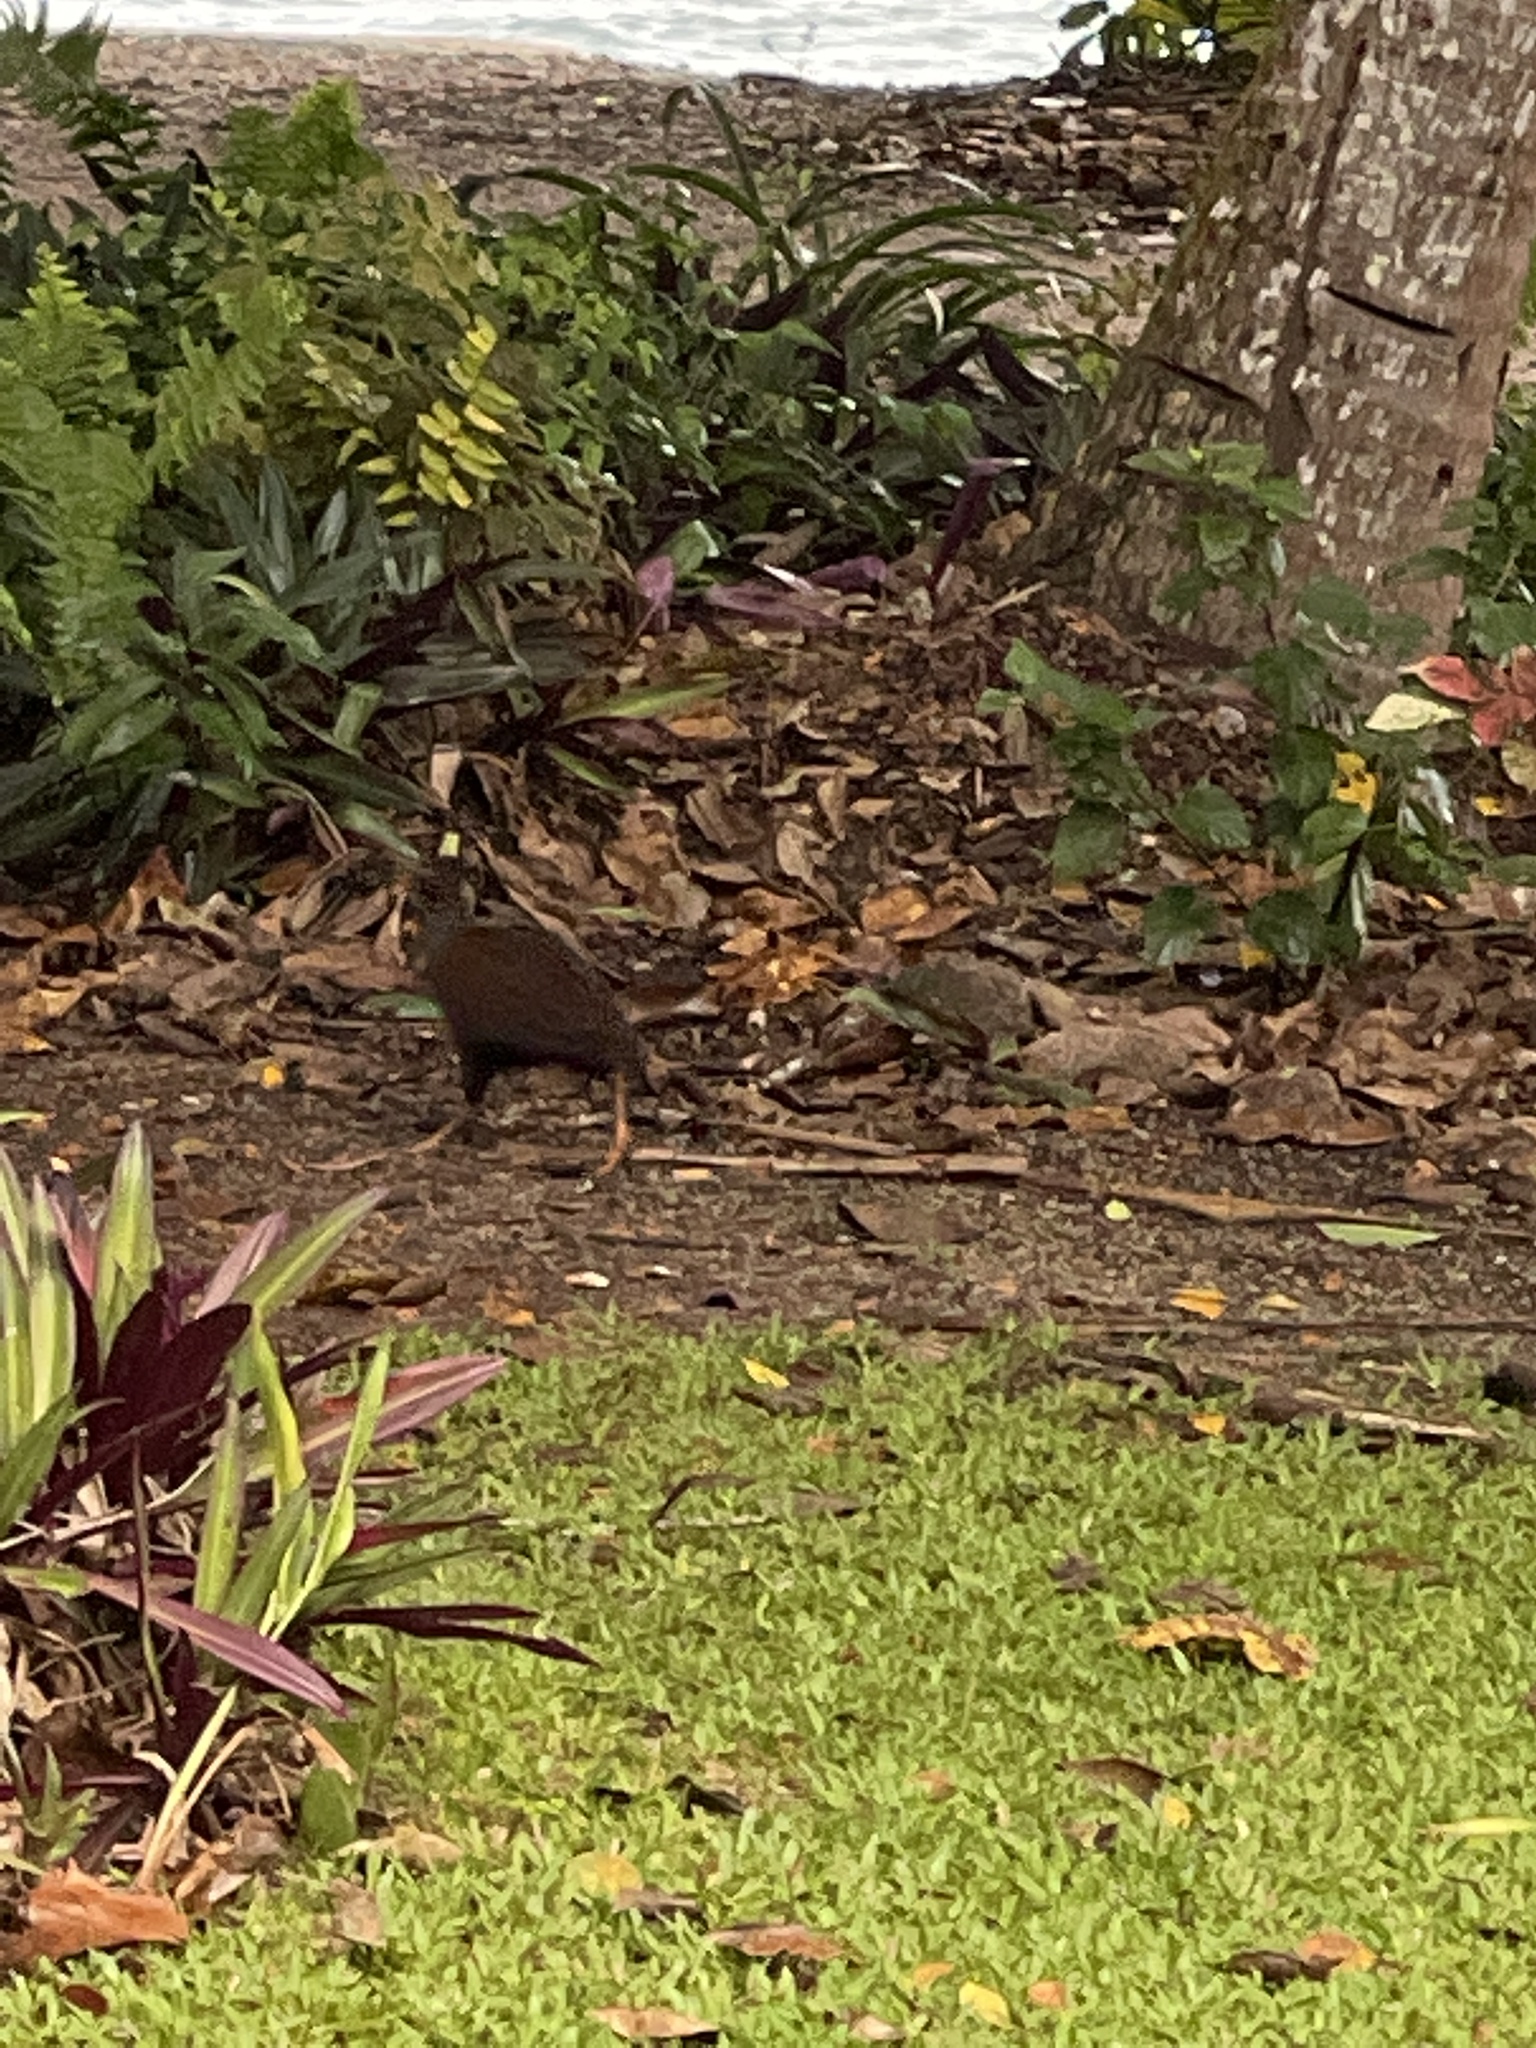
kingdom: Animalia
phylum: Chordata
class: Aves
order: Galliformes
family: Megapodiidae
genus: Megapodius
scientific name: Megapodius reinwardt
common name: Orange-footed scrubfowl
